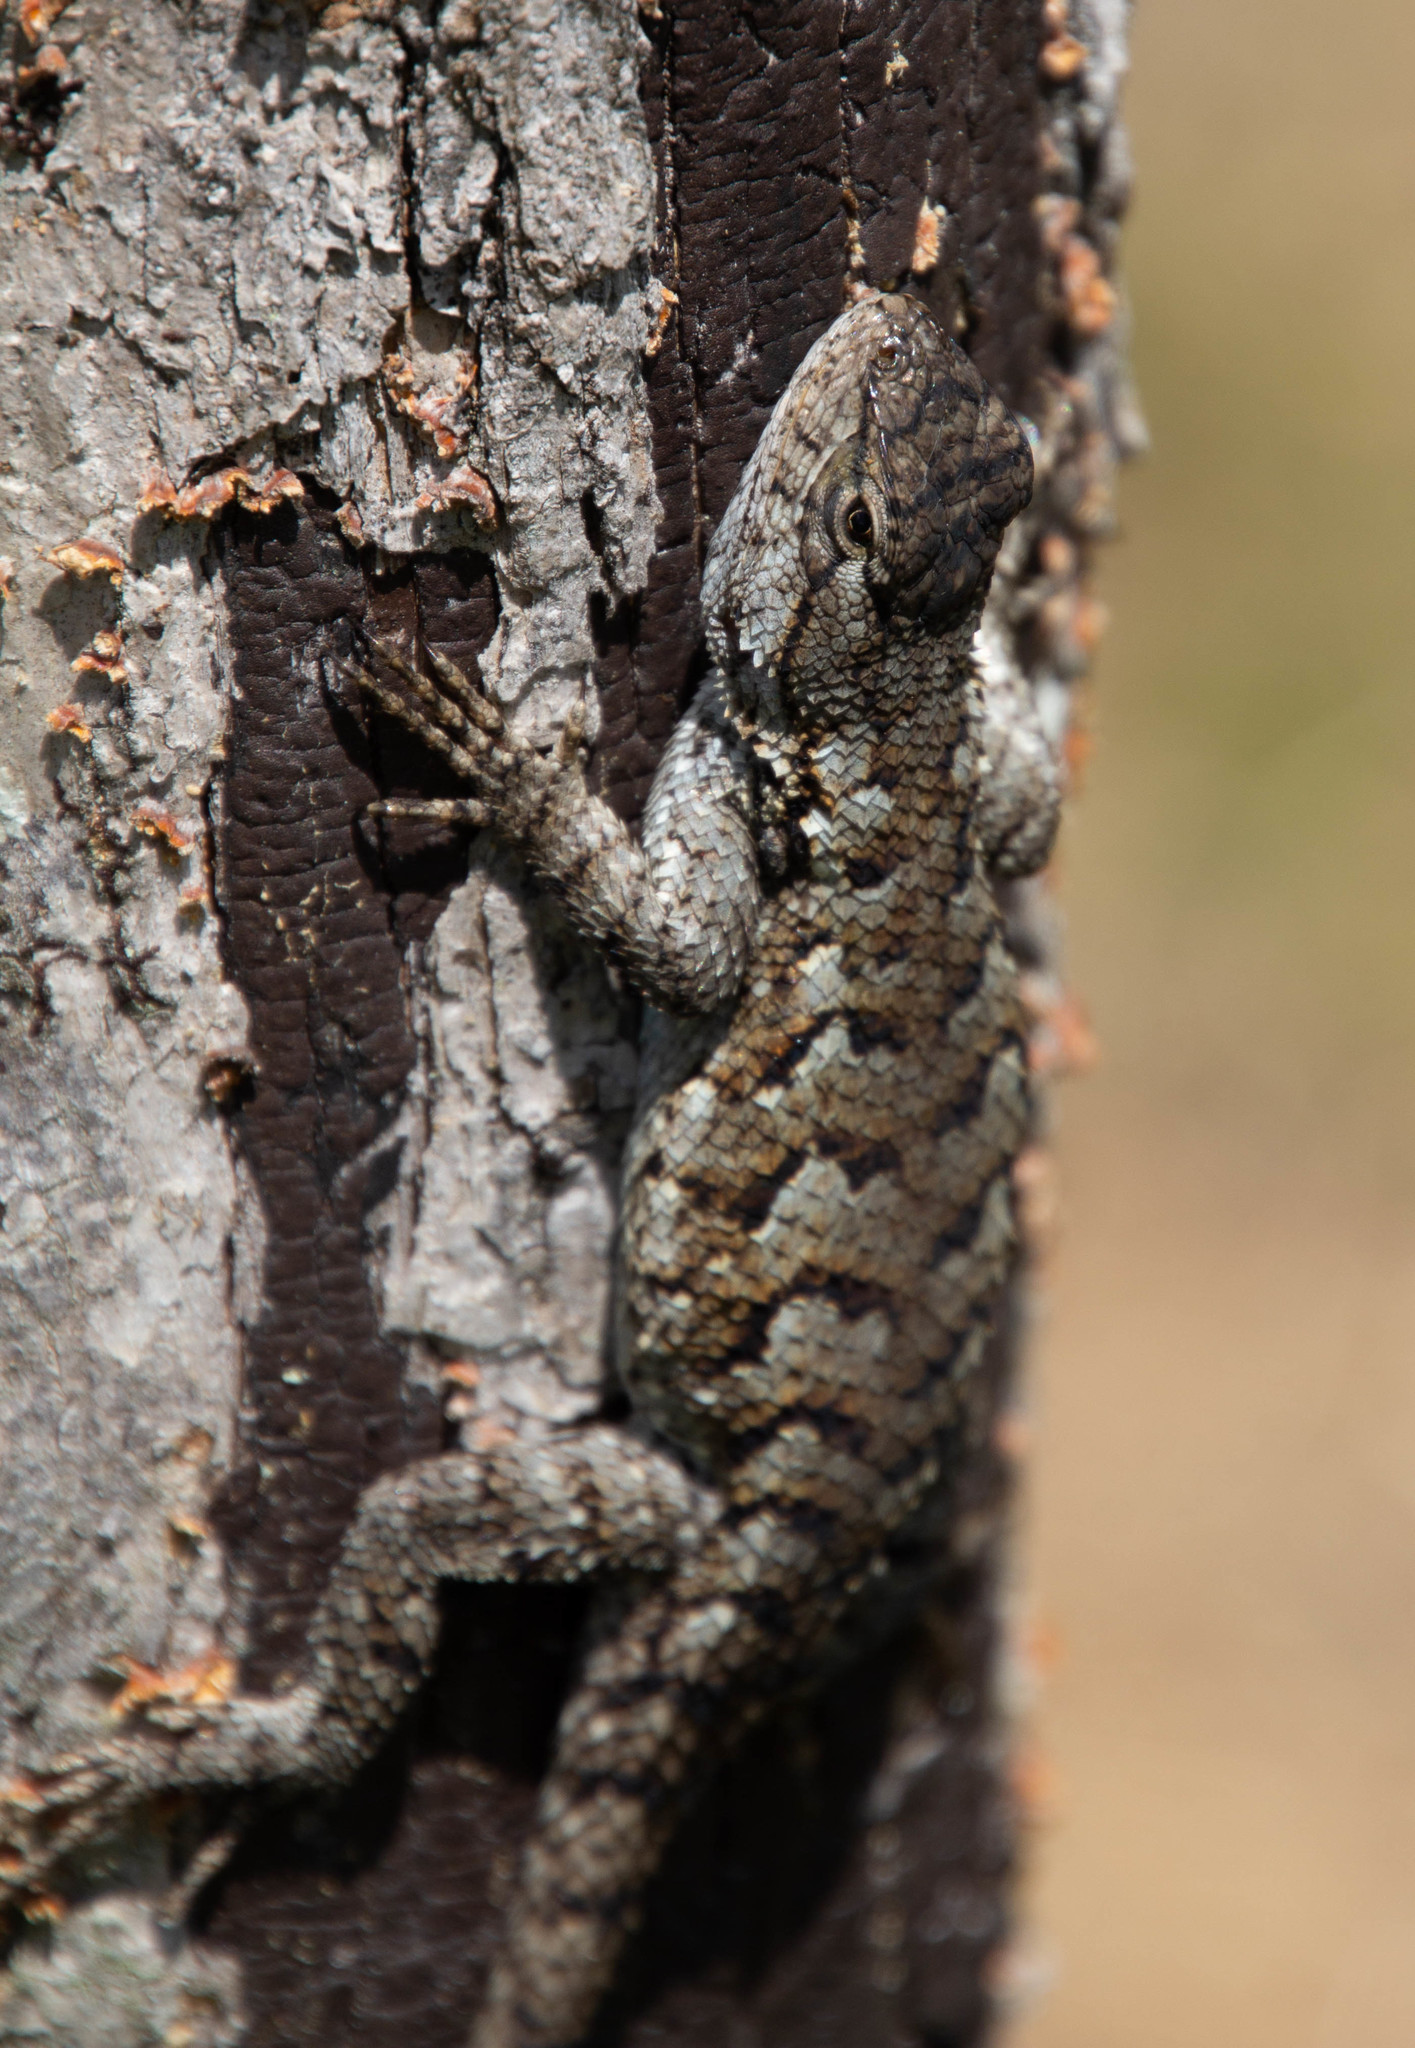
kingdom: Animalia
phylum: Chordata
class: Squamata
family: Phrynosomatidae
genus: Sceloporus
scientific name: Sceloporus undulatus
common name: Eastern fence lizard
